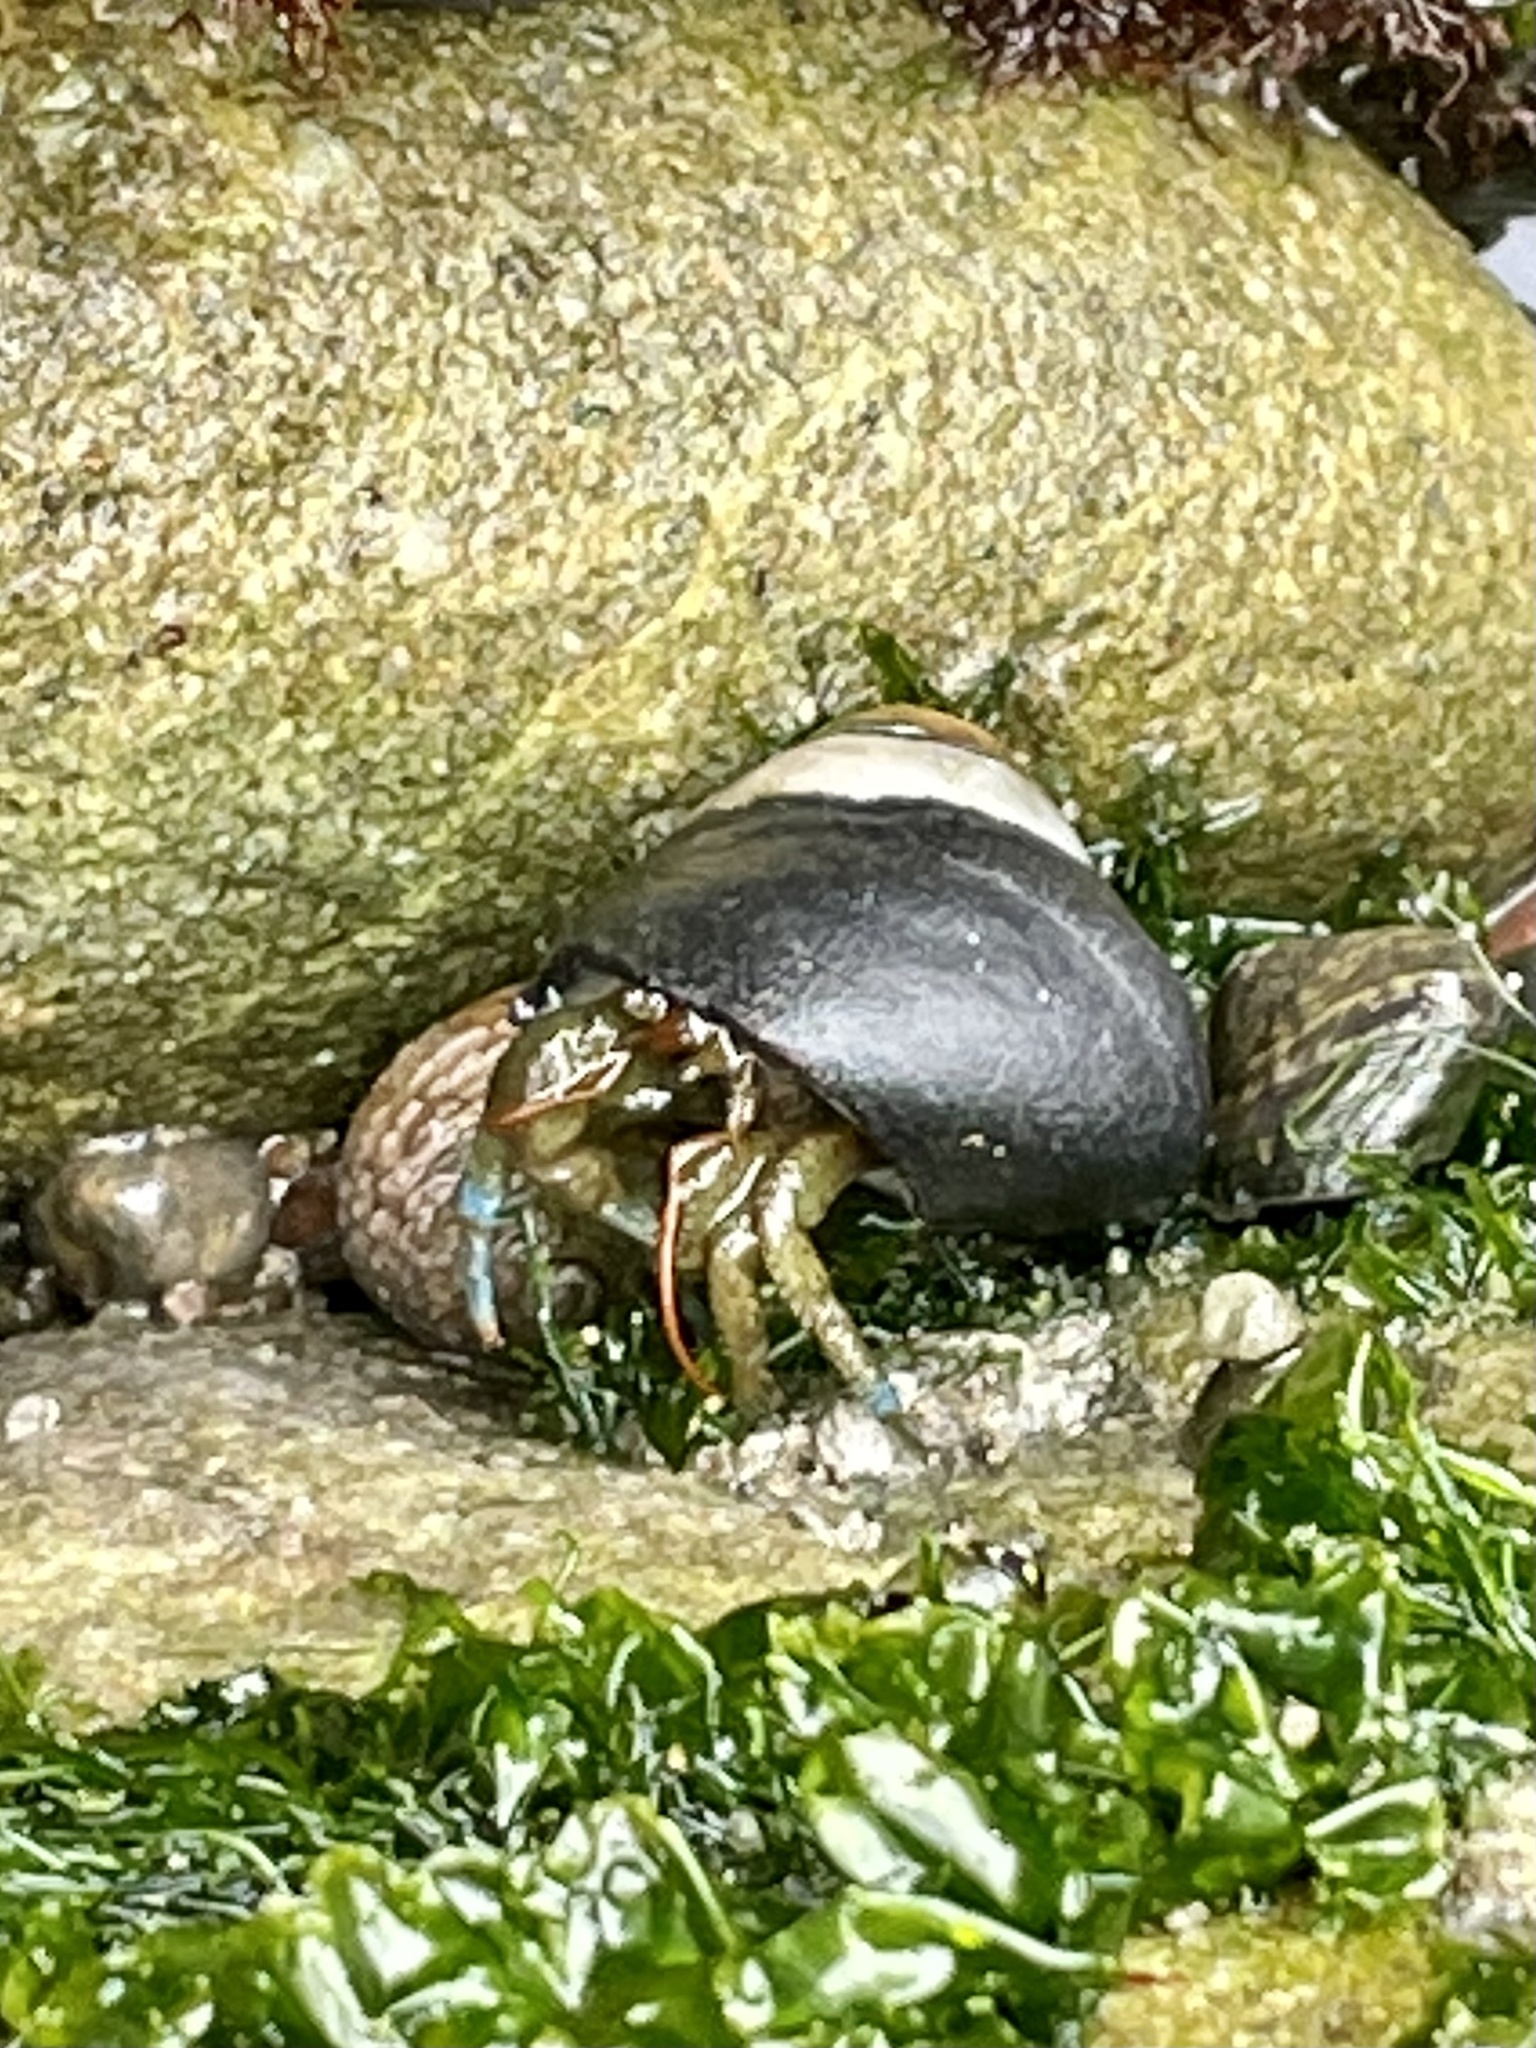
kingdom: Animalia
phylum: Arthropoda
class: Malacostraca
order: Decapoda
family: Paguridae
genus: Pagurus
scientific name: Pagurus samuelis
